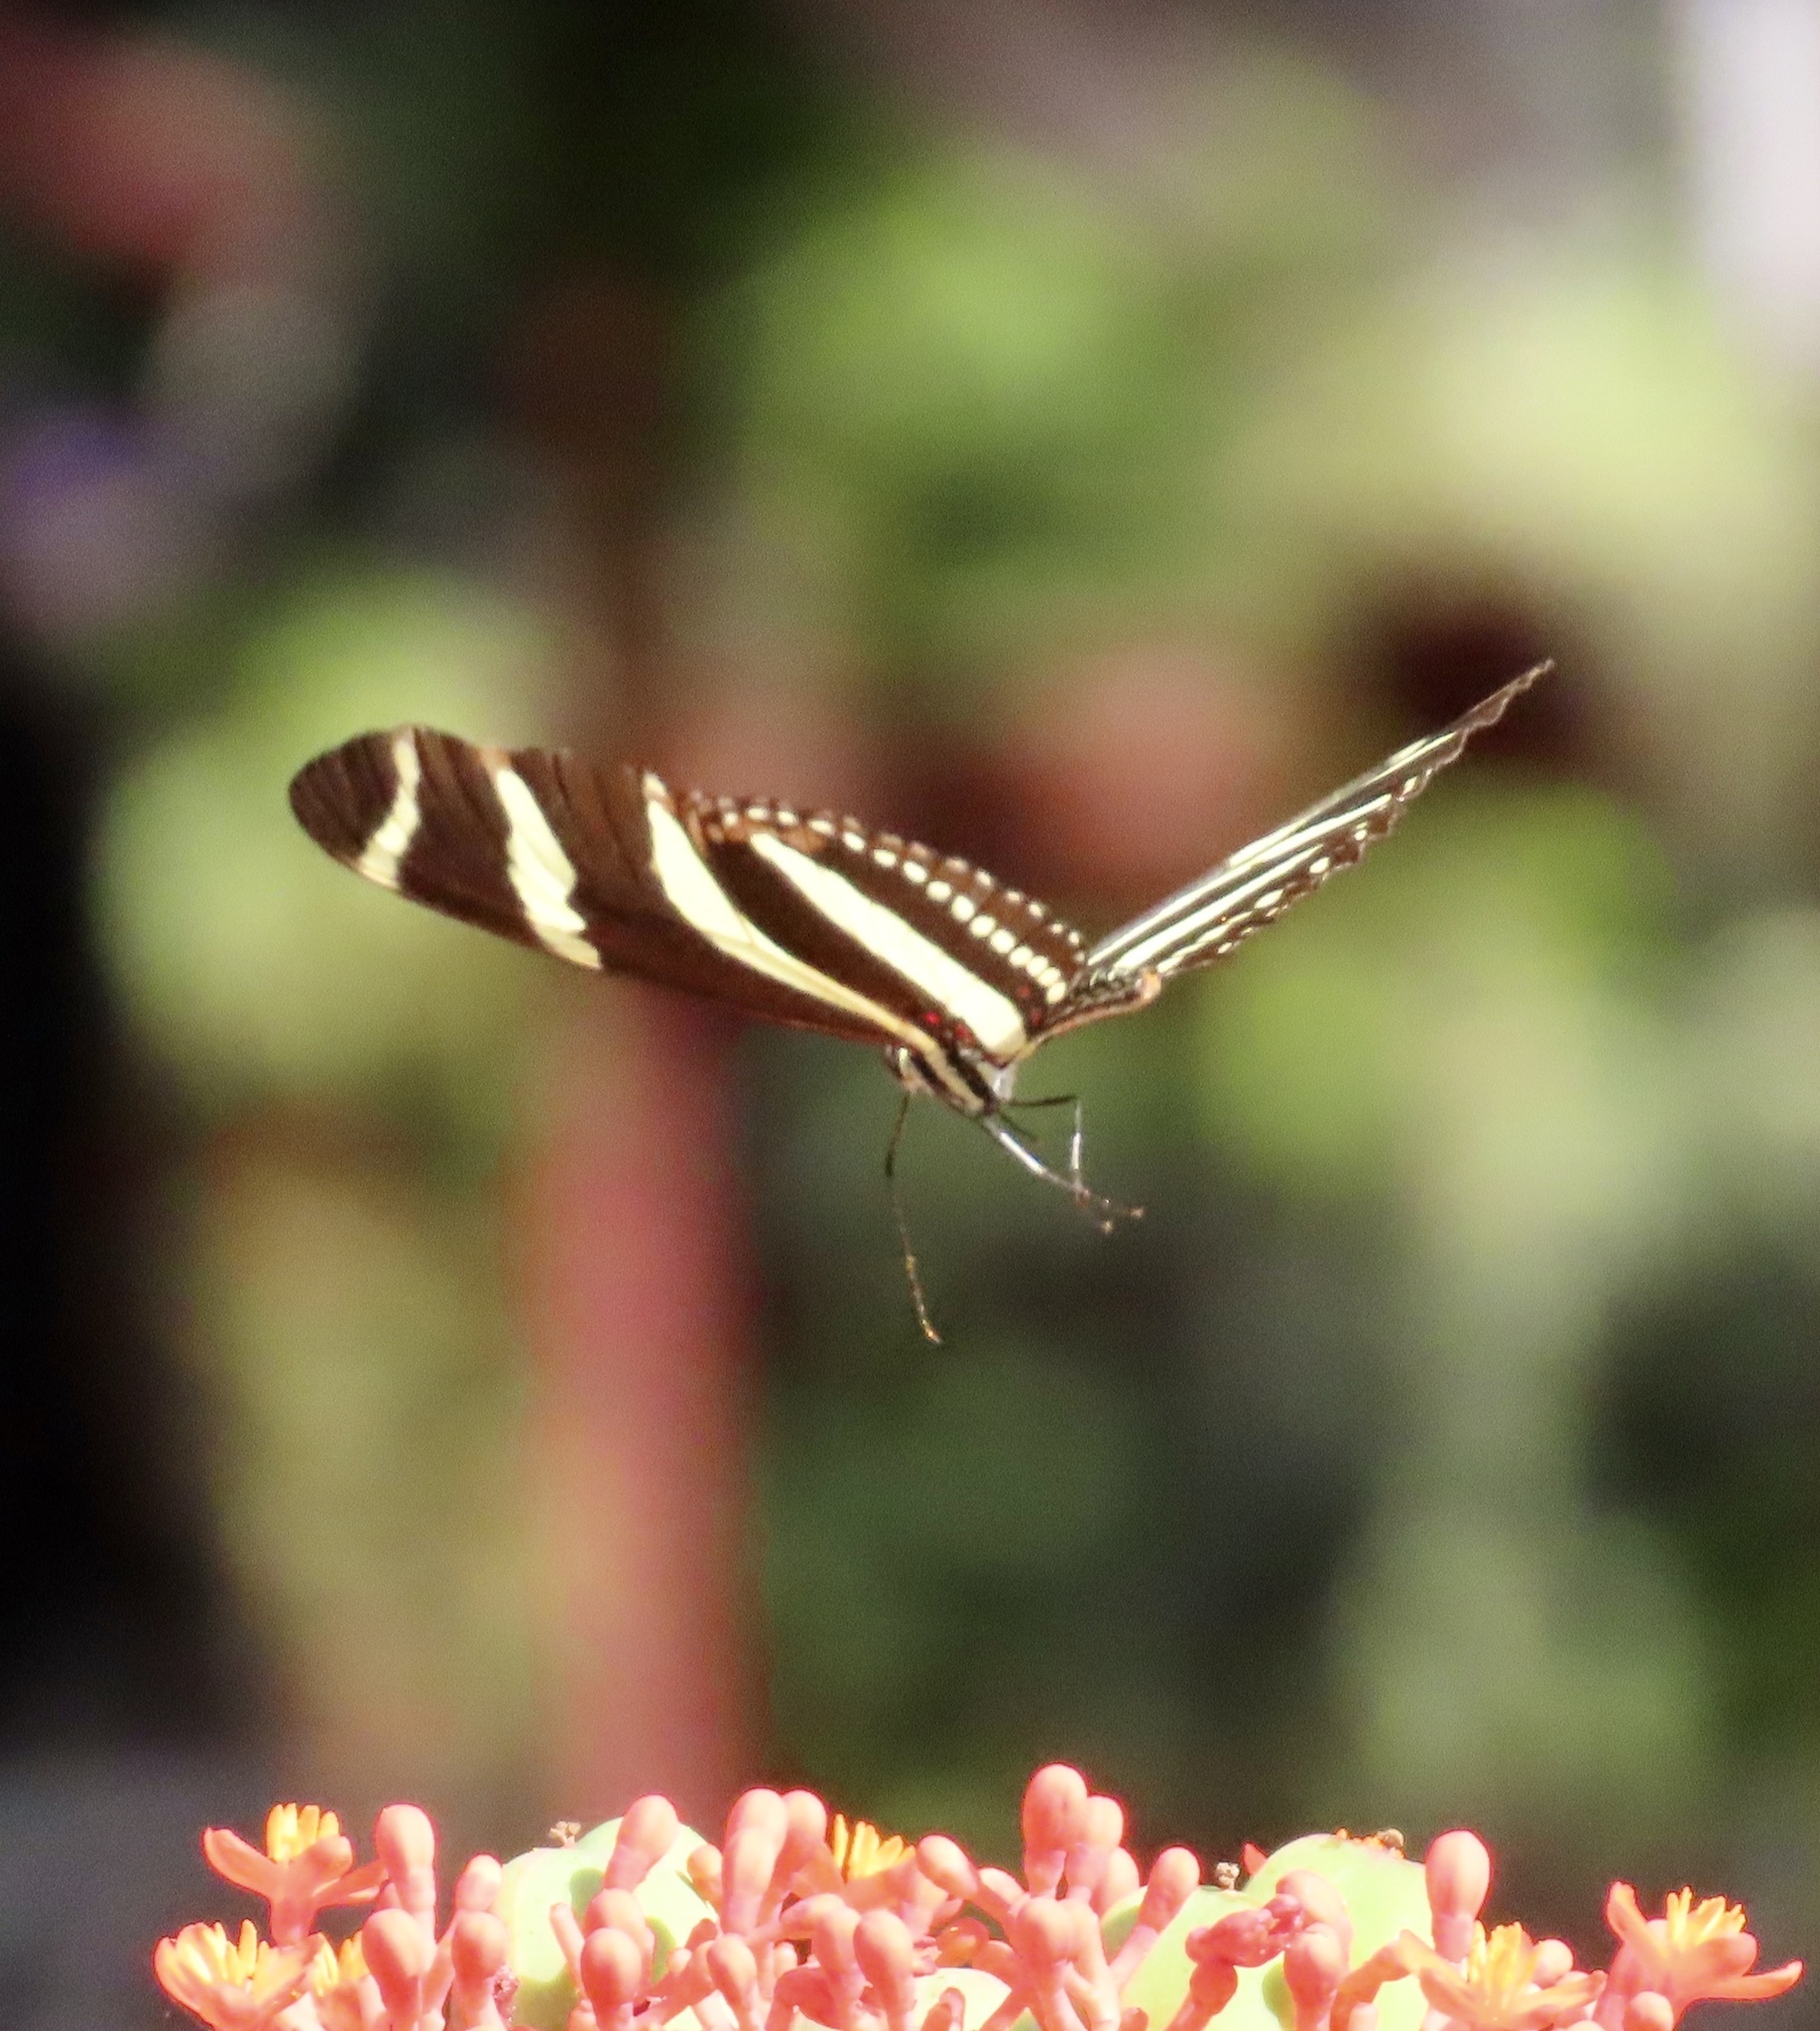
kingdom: Animalia
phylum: Arthropoda
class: Insecta
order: Lepidoptera
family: Nymphalidae
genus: Heliconius
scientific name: Heliconius charithonia
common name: Zebra long wing
